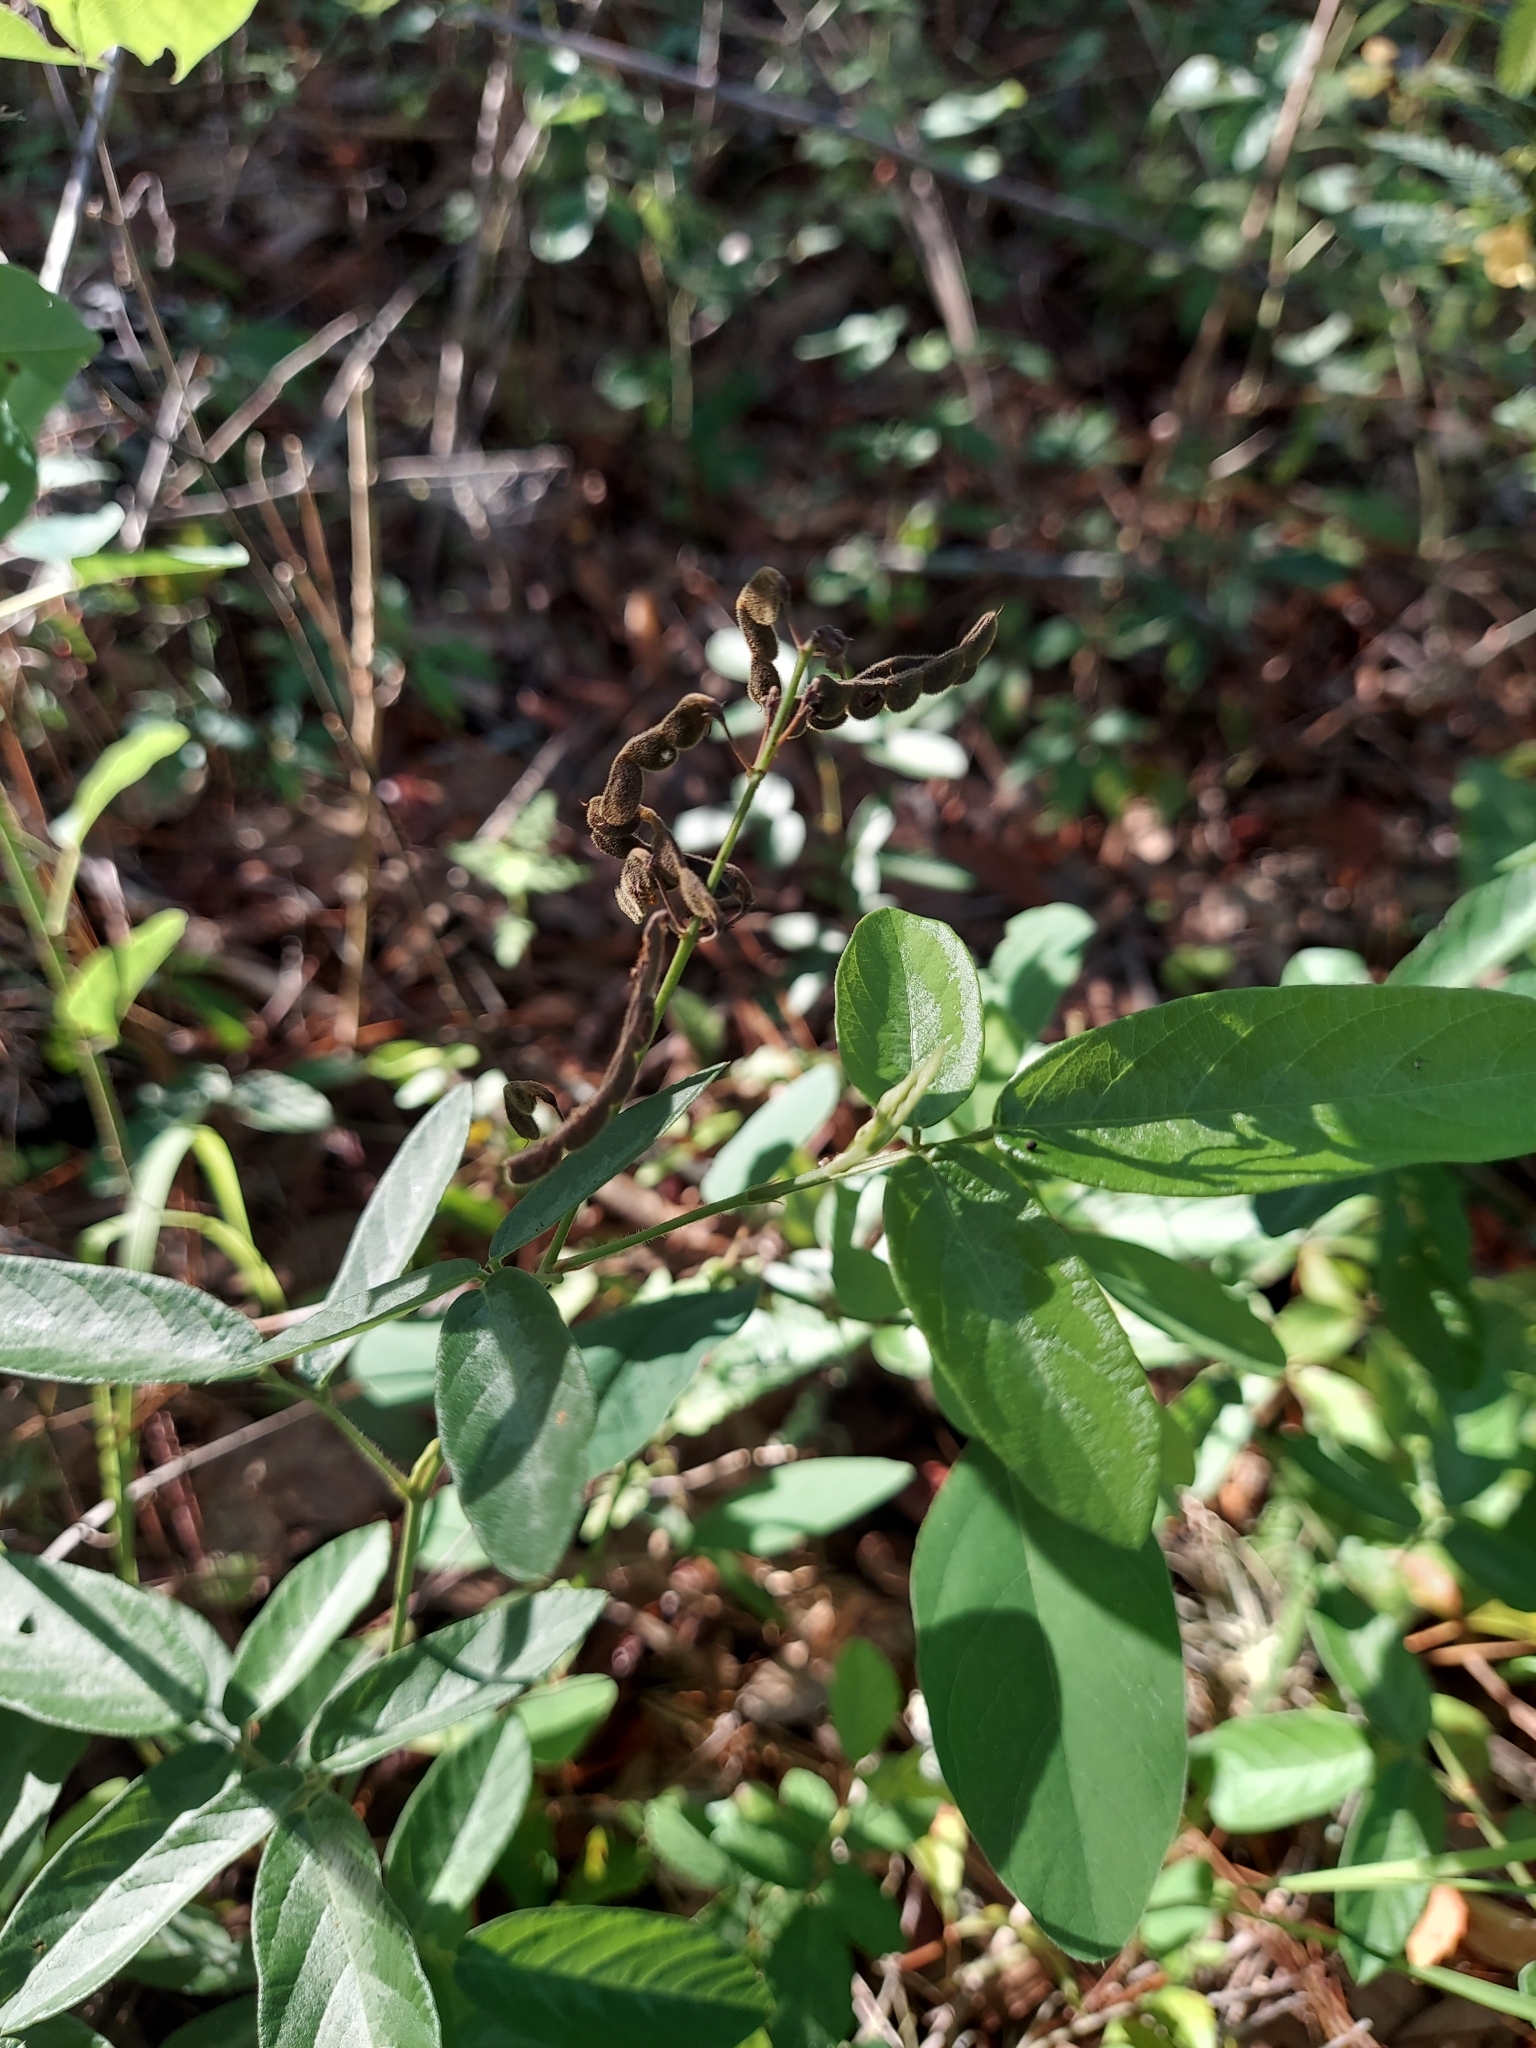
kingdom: Plantae
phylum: Tracheophyta
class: Magnoliopsida
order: Fabales
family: Fabaceae
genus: Desmodium
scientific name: Desmodium incanum
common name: Tickclover
